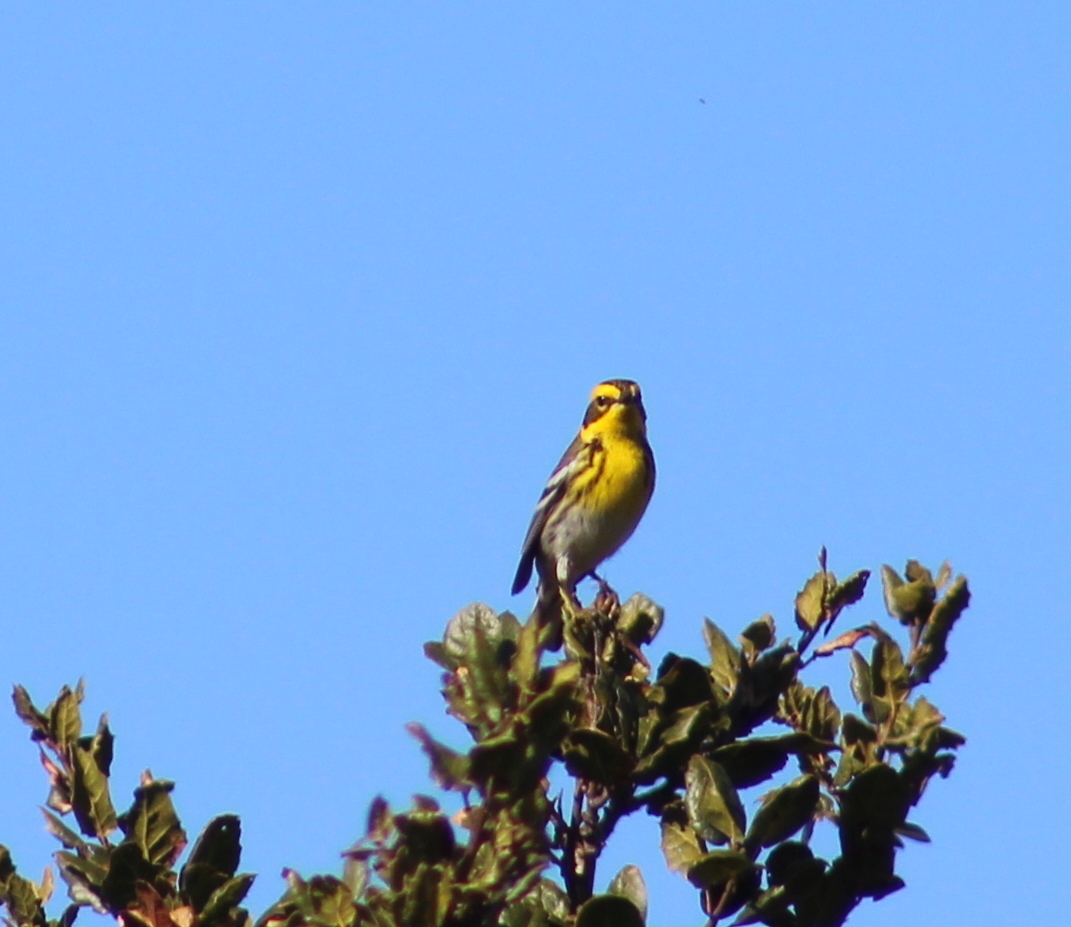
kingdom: Animalia
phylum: Chordata
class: Aves
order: Passeriformes
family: Parulidae
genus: Setophaga
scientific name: Setophaga townsendi
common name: Townsend's warbler
